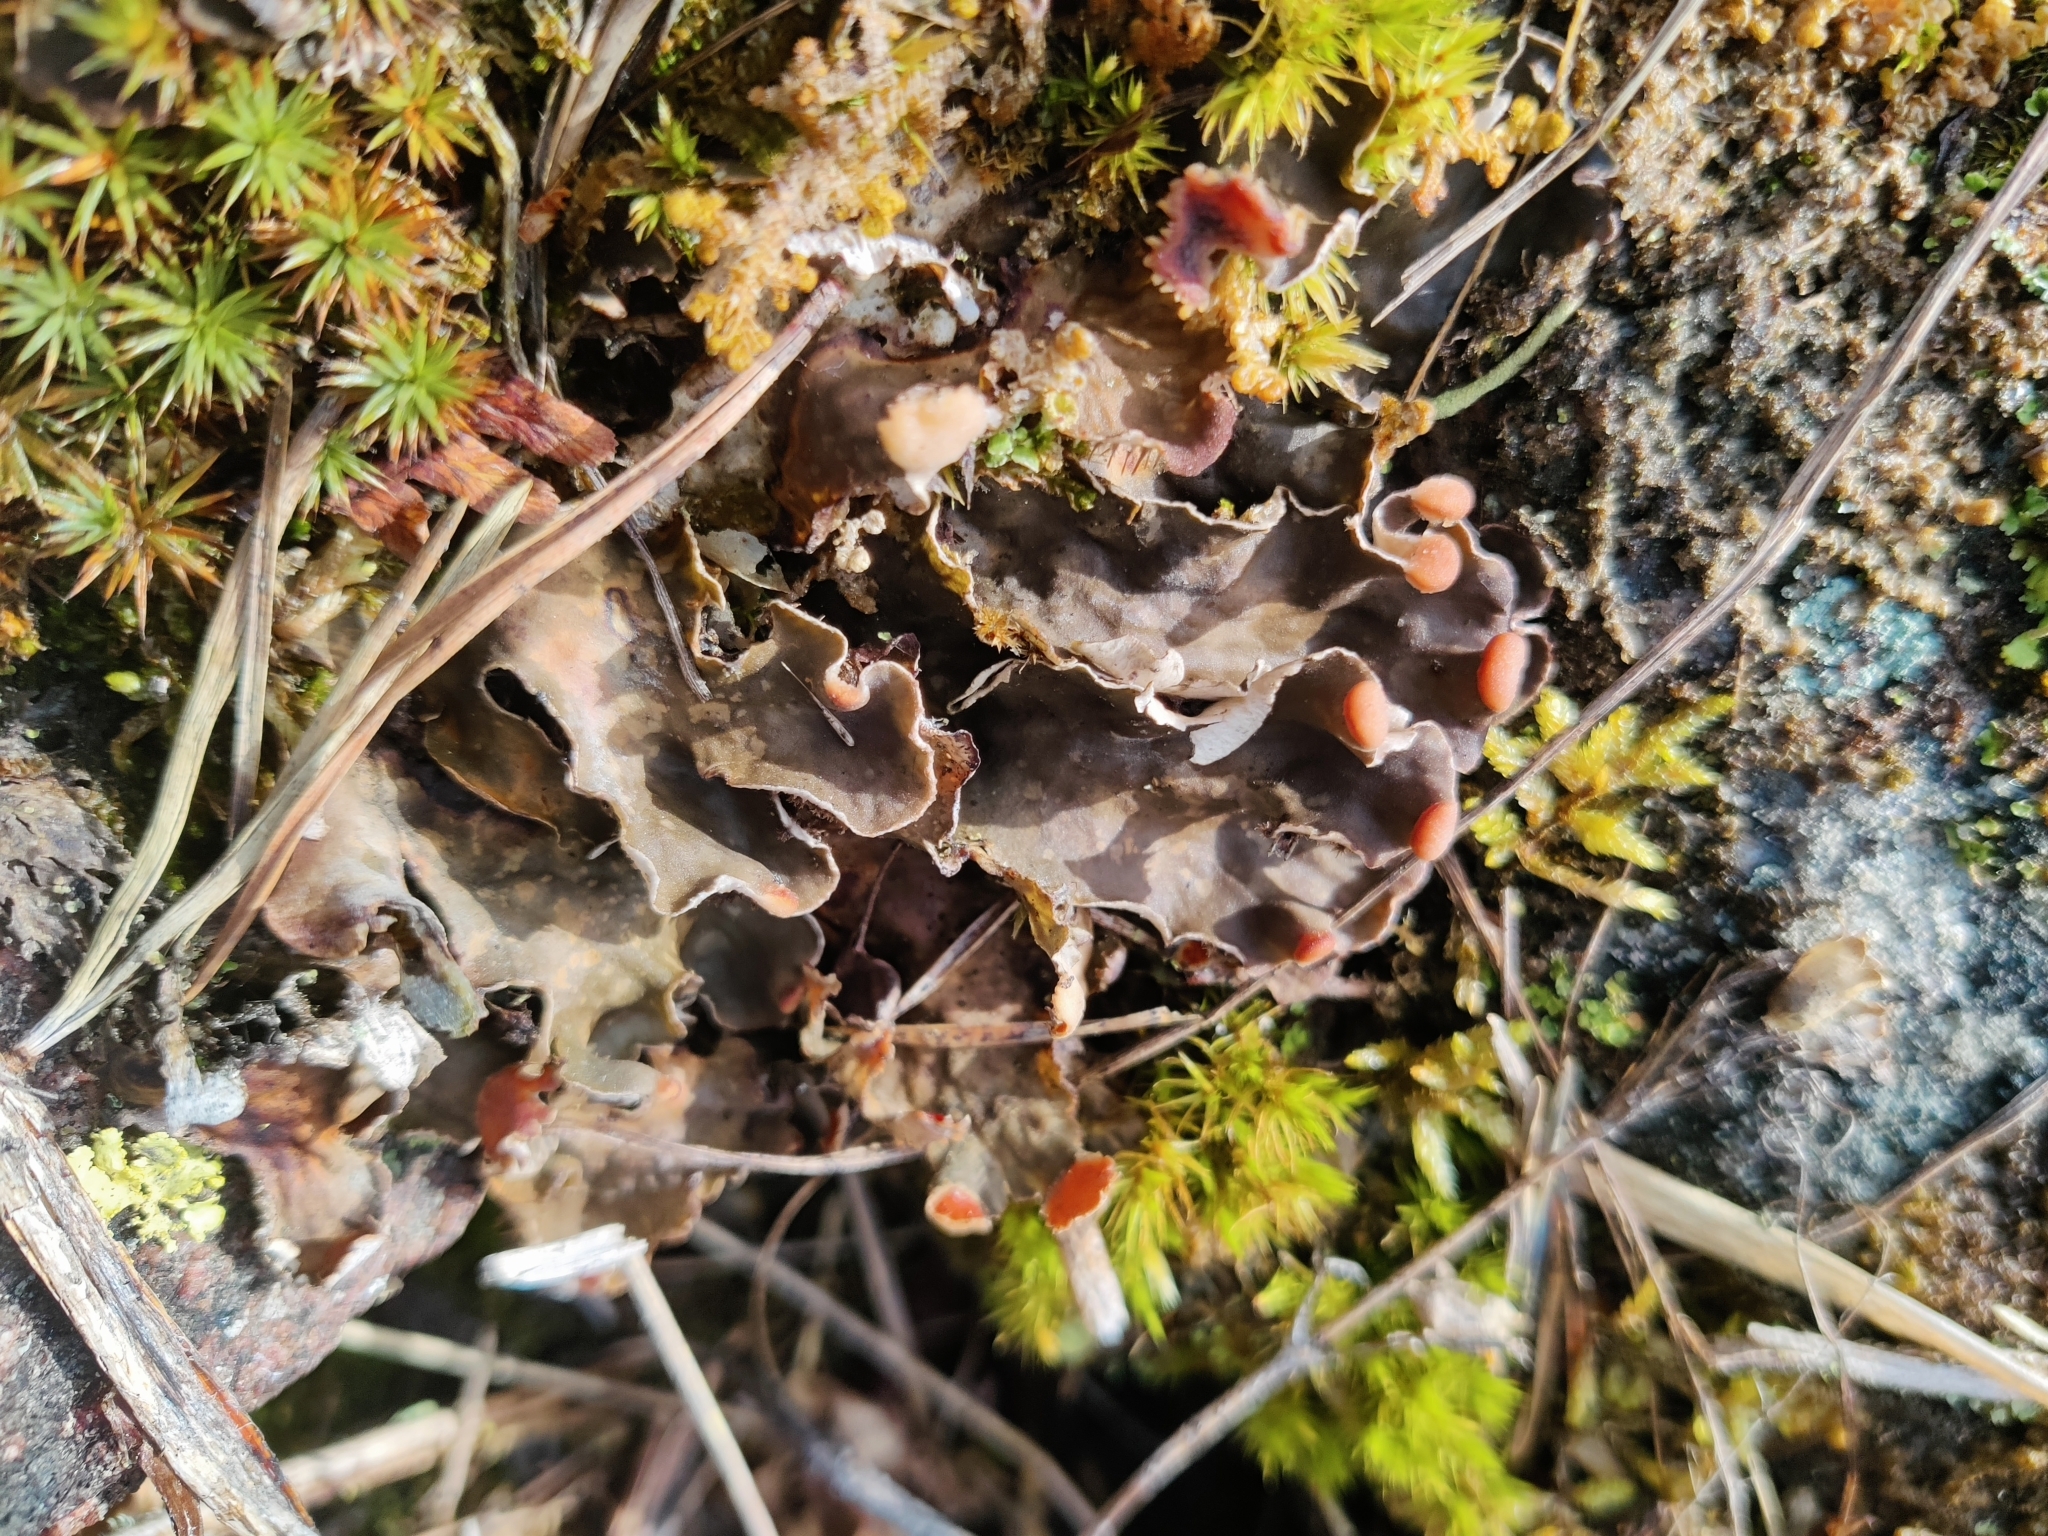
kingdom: Fungi
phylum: Ascomycota
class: Lecanoromycetes
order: Peltigerales
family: Peltigeraceae
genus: Peltigera
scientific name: Peltigera didactyla
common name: Alternating dog lichen
